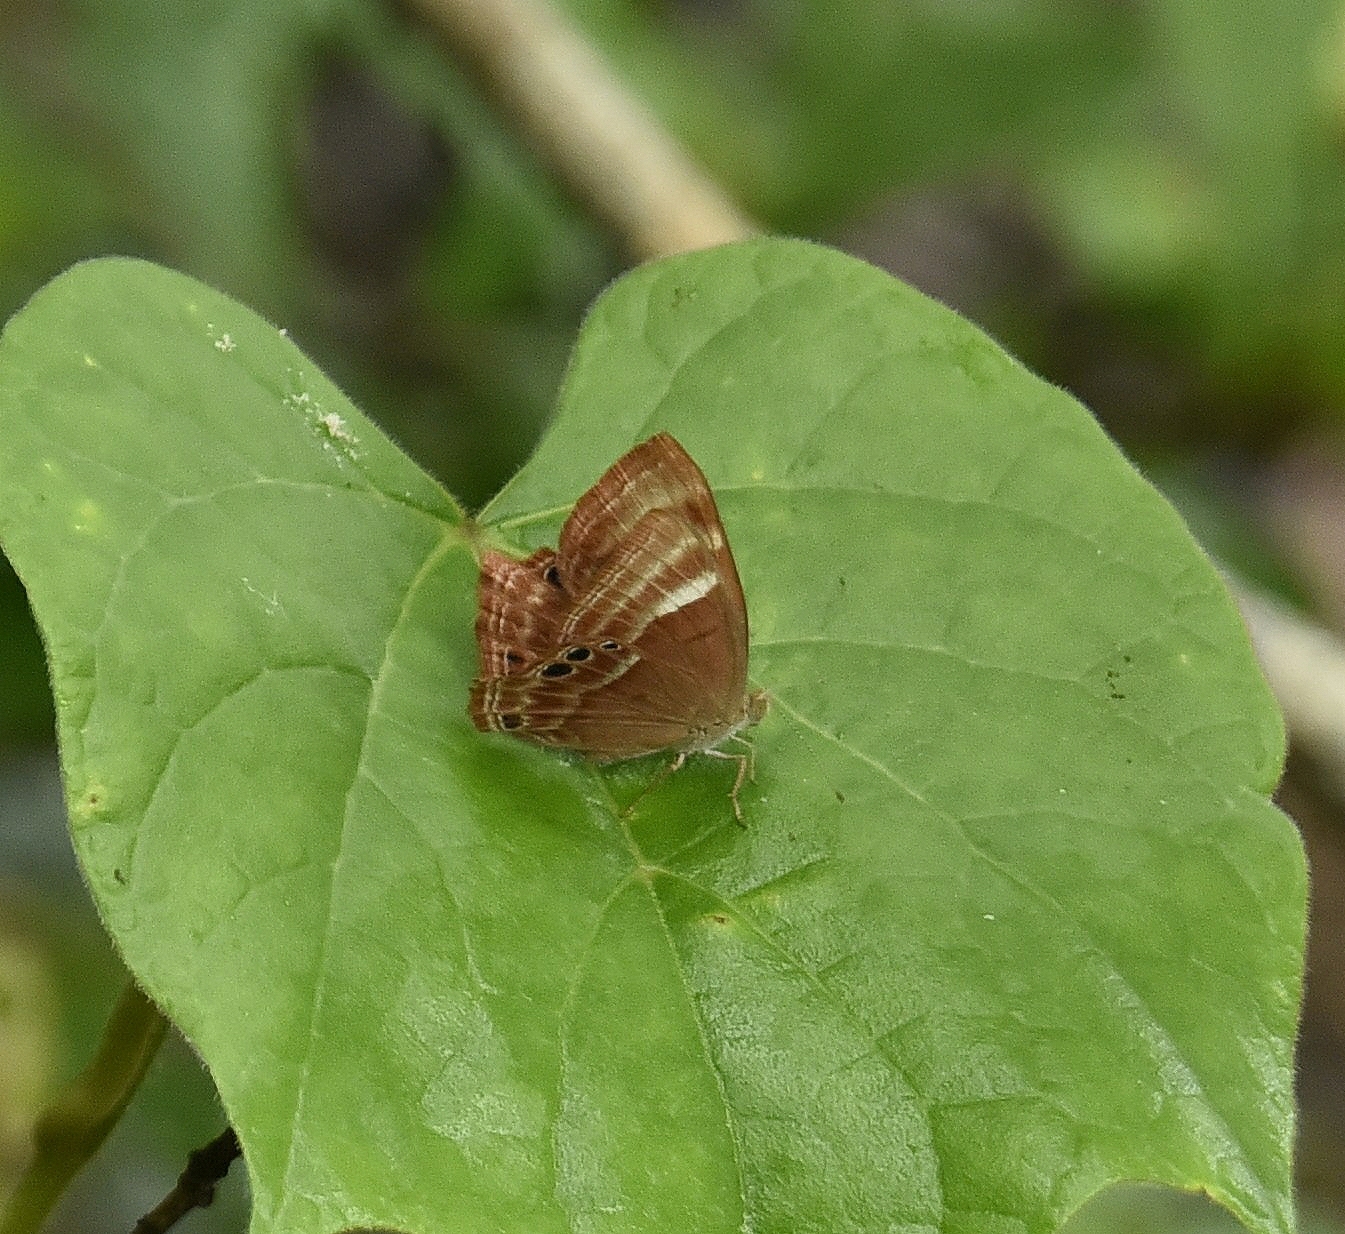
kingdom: Animalia
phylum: Arthropoda
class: Insecta
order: Lepidoptera
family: Lycaenidae
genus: Abisara
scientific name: Abisara echeria
